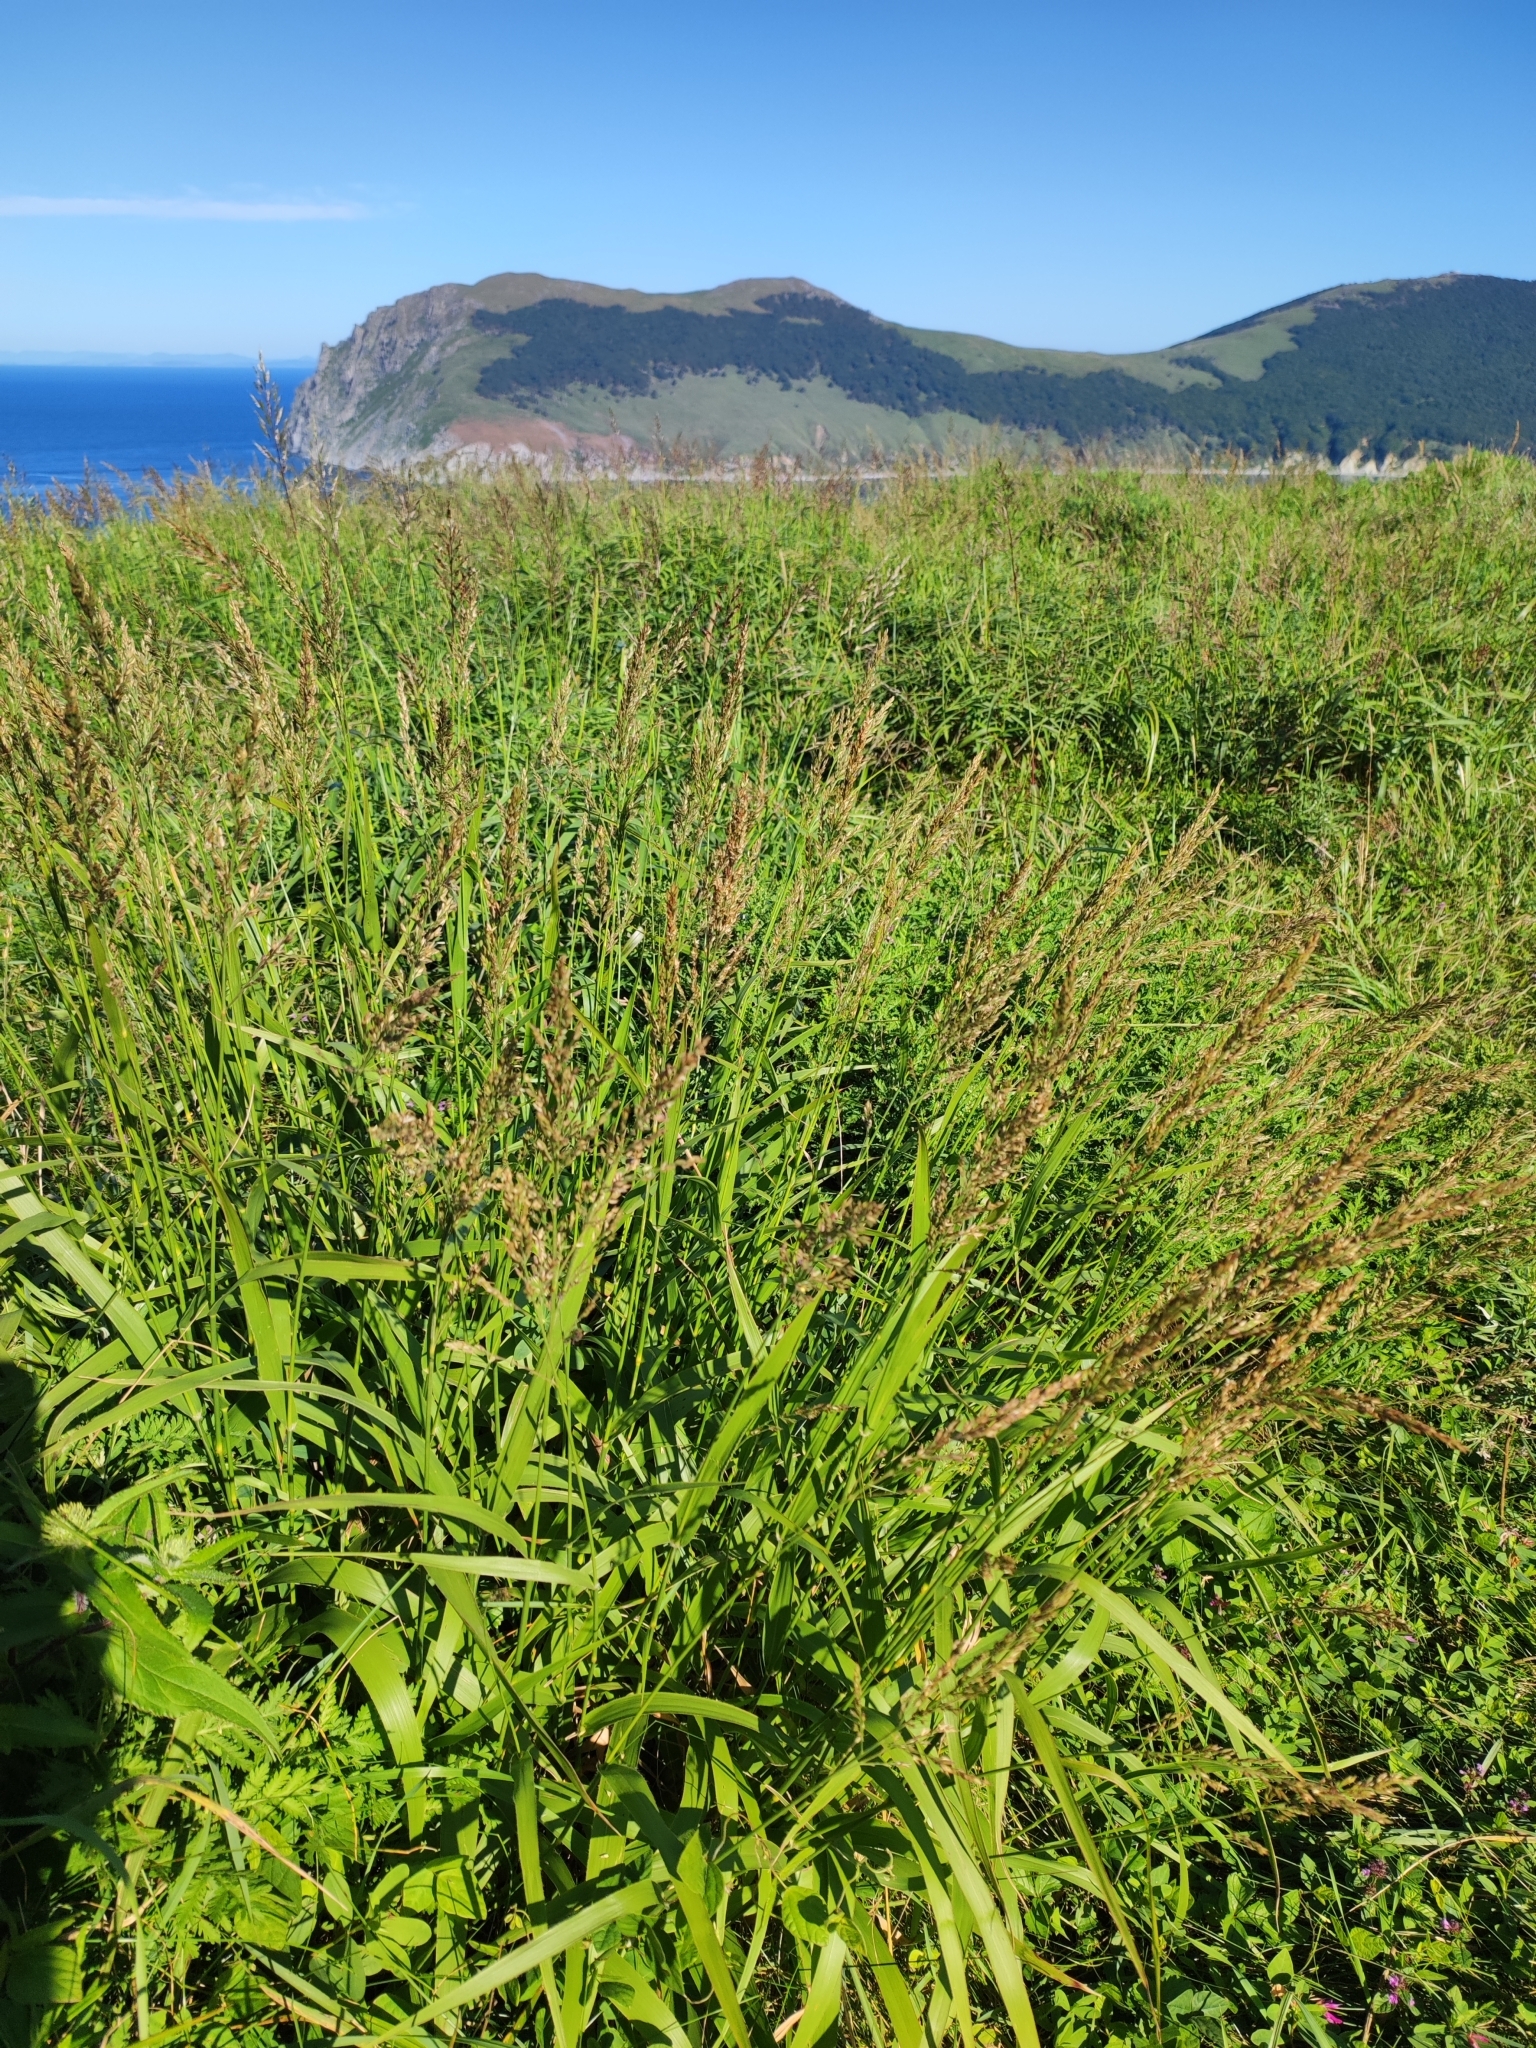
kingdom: Plantae
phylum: Tracheophyta
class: Liliopsida
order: Poales
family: Poaceae
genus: Arundinella
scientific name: Arundinella hirta
